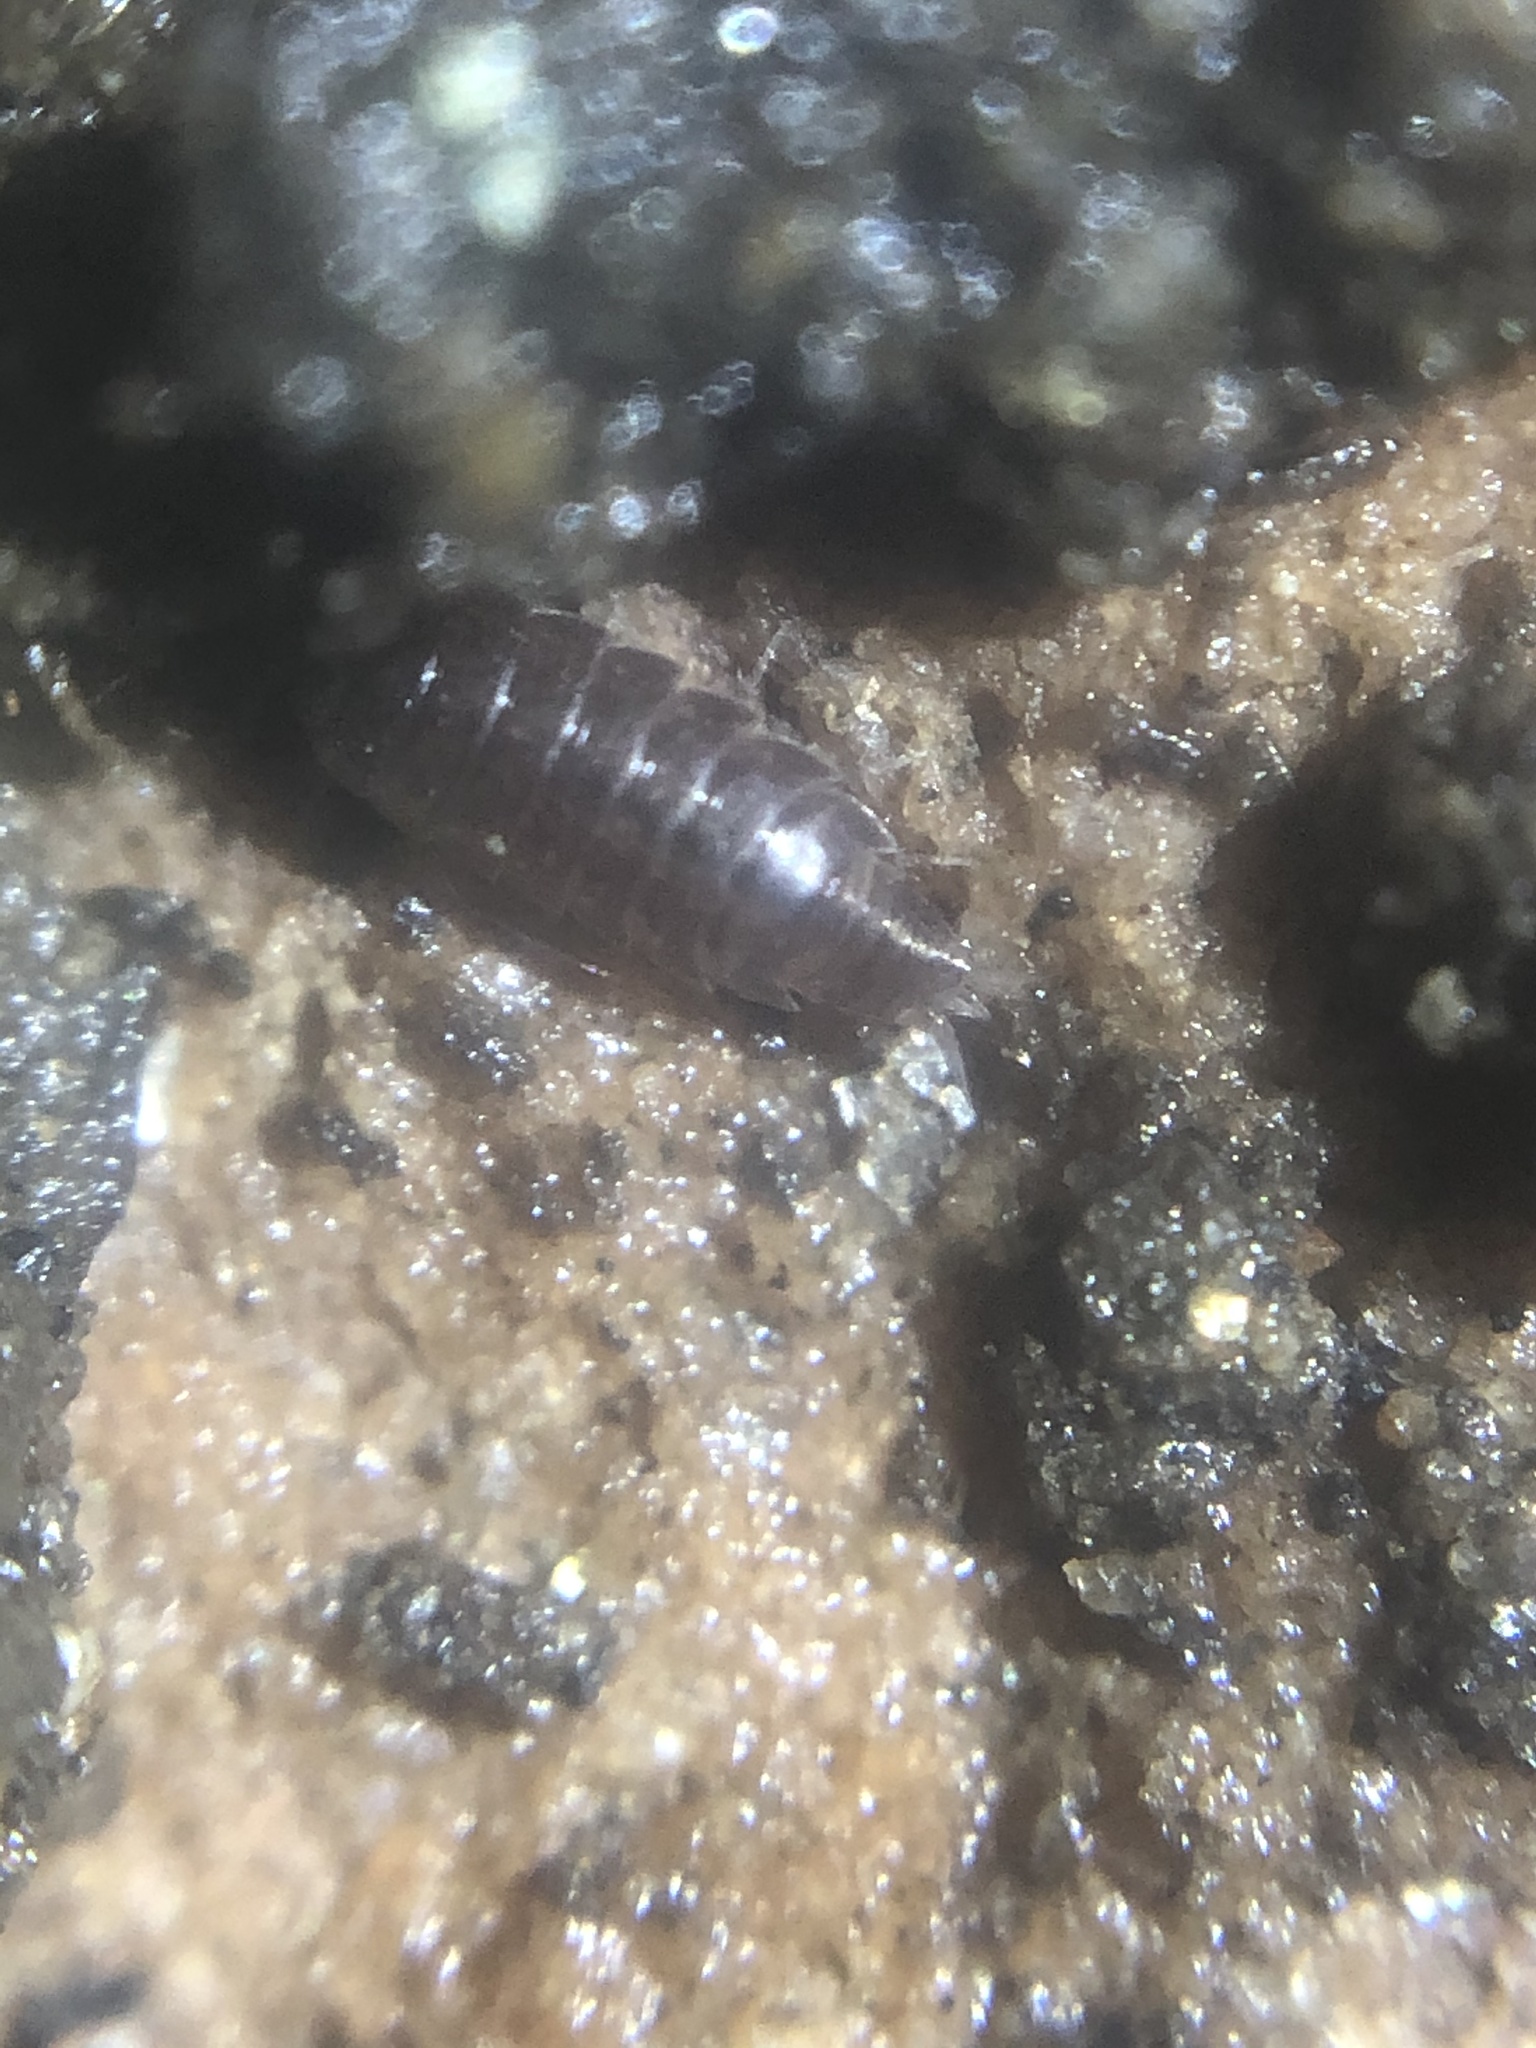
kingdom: Animalia
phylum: Arthropoda
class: Malacostraca
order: Isopoda
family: Trichoniscidae
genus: Hyloniscus
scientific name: Hyloniscus riparius
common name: Isopod
